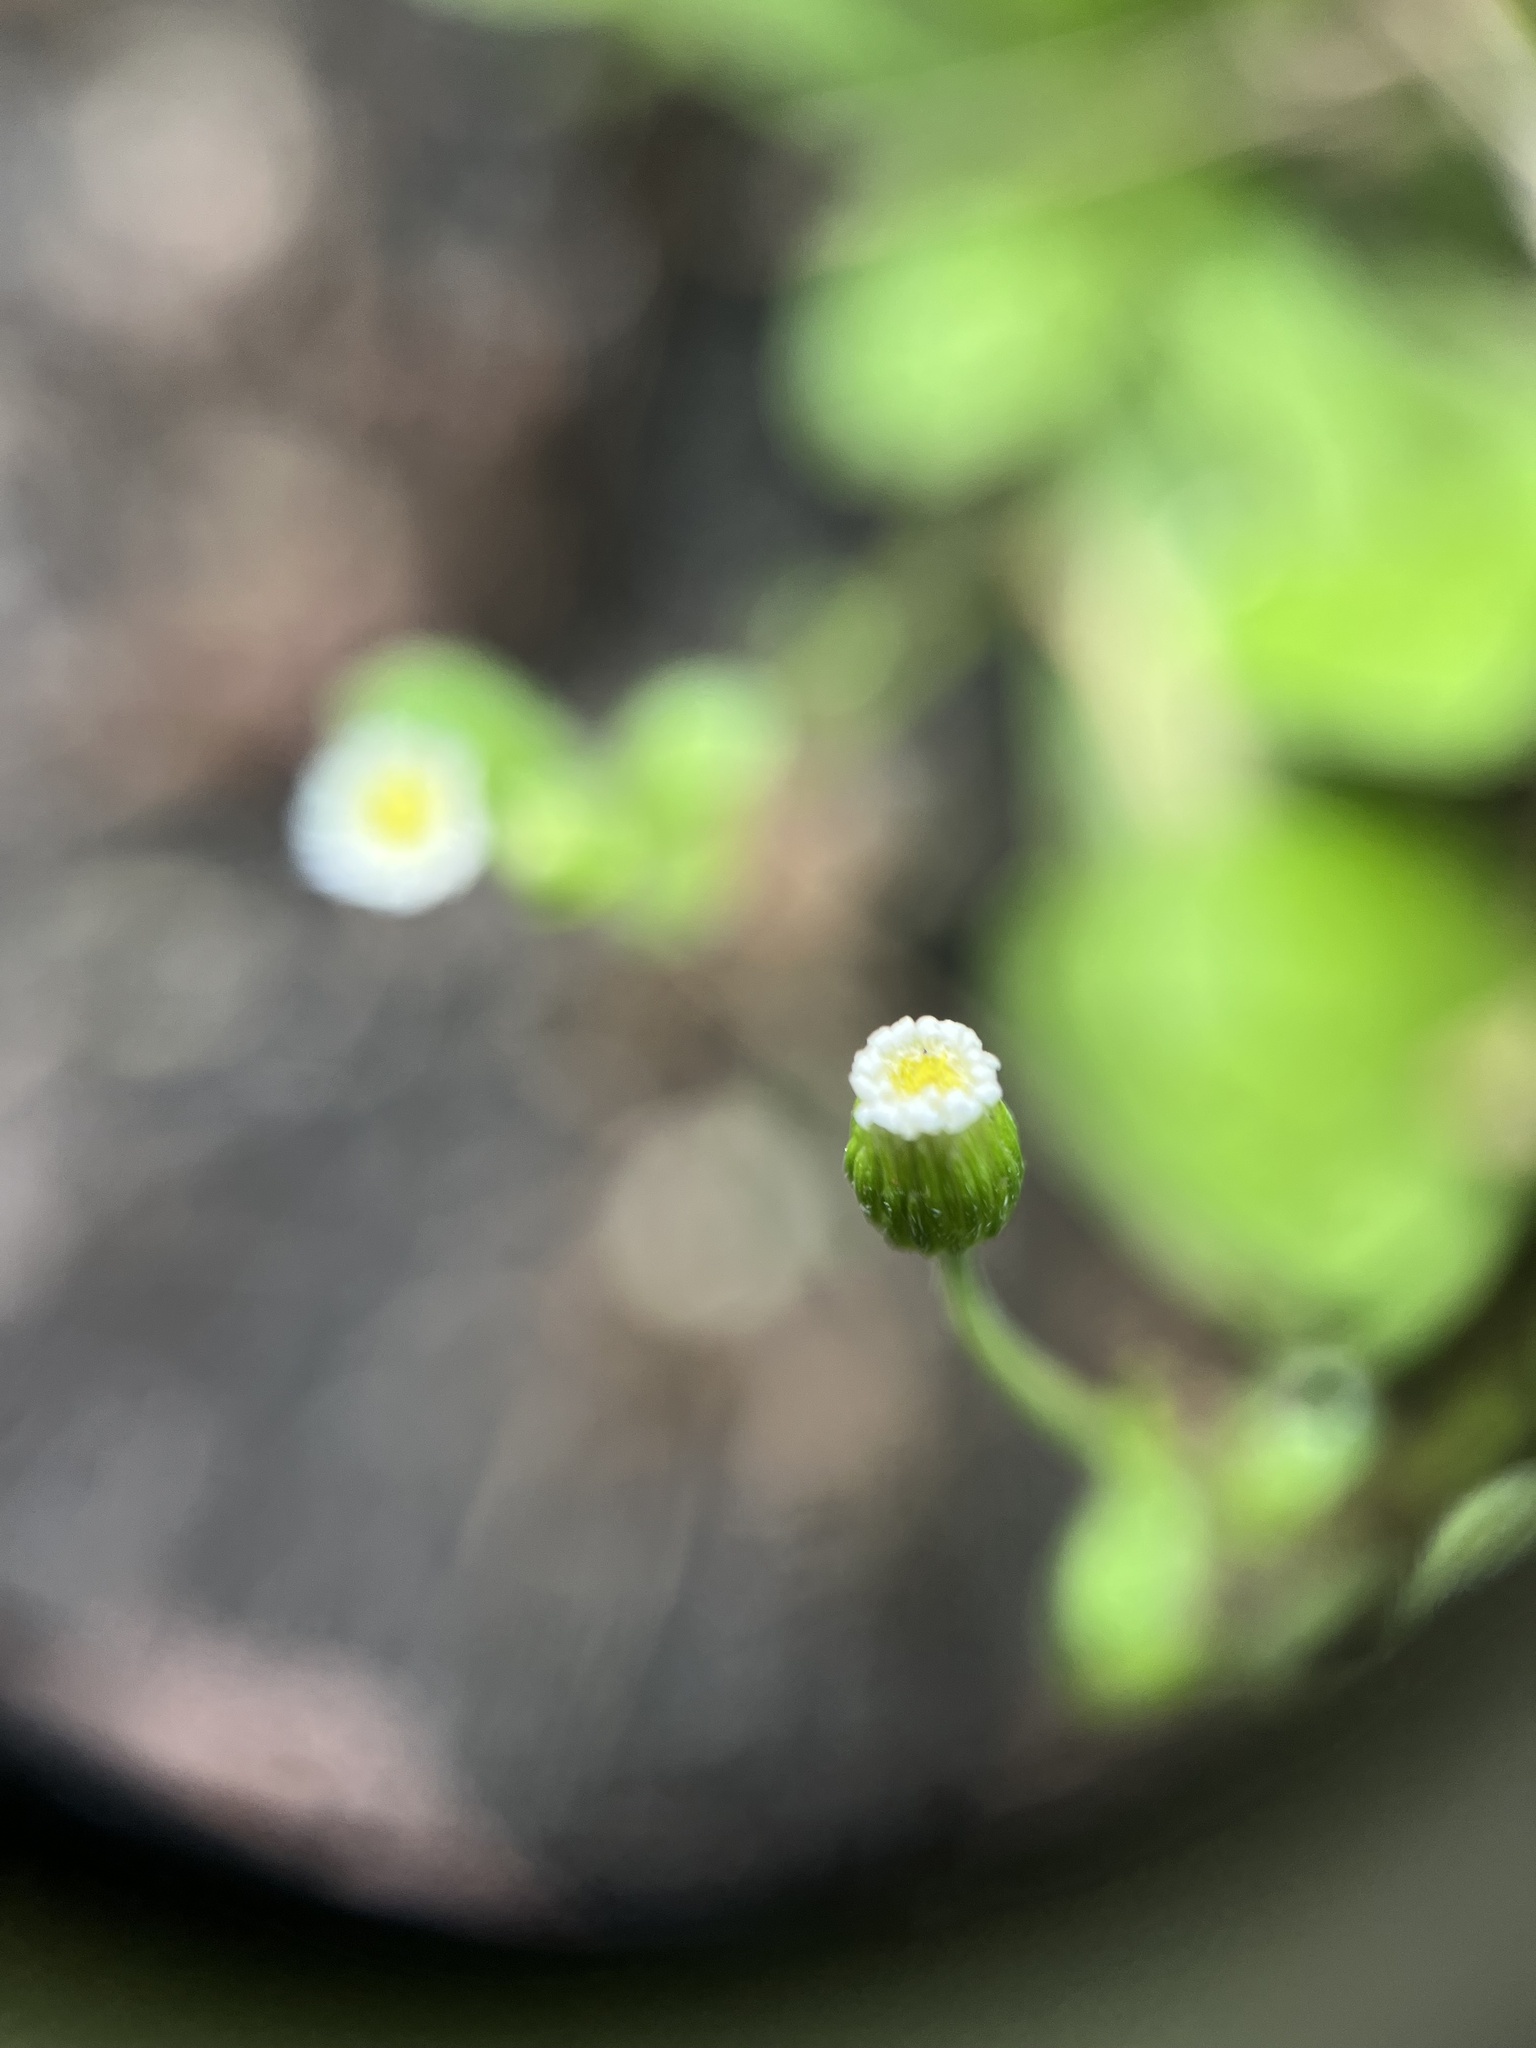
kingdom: Plantae
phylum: Tracheophyta
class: Magnoliopsida
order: Asterales
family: Asteraceae
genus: Erigeron
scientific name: Erigeron bellioides
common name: Bellorita
